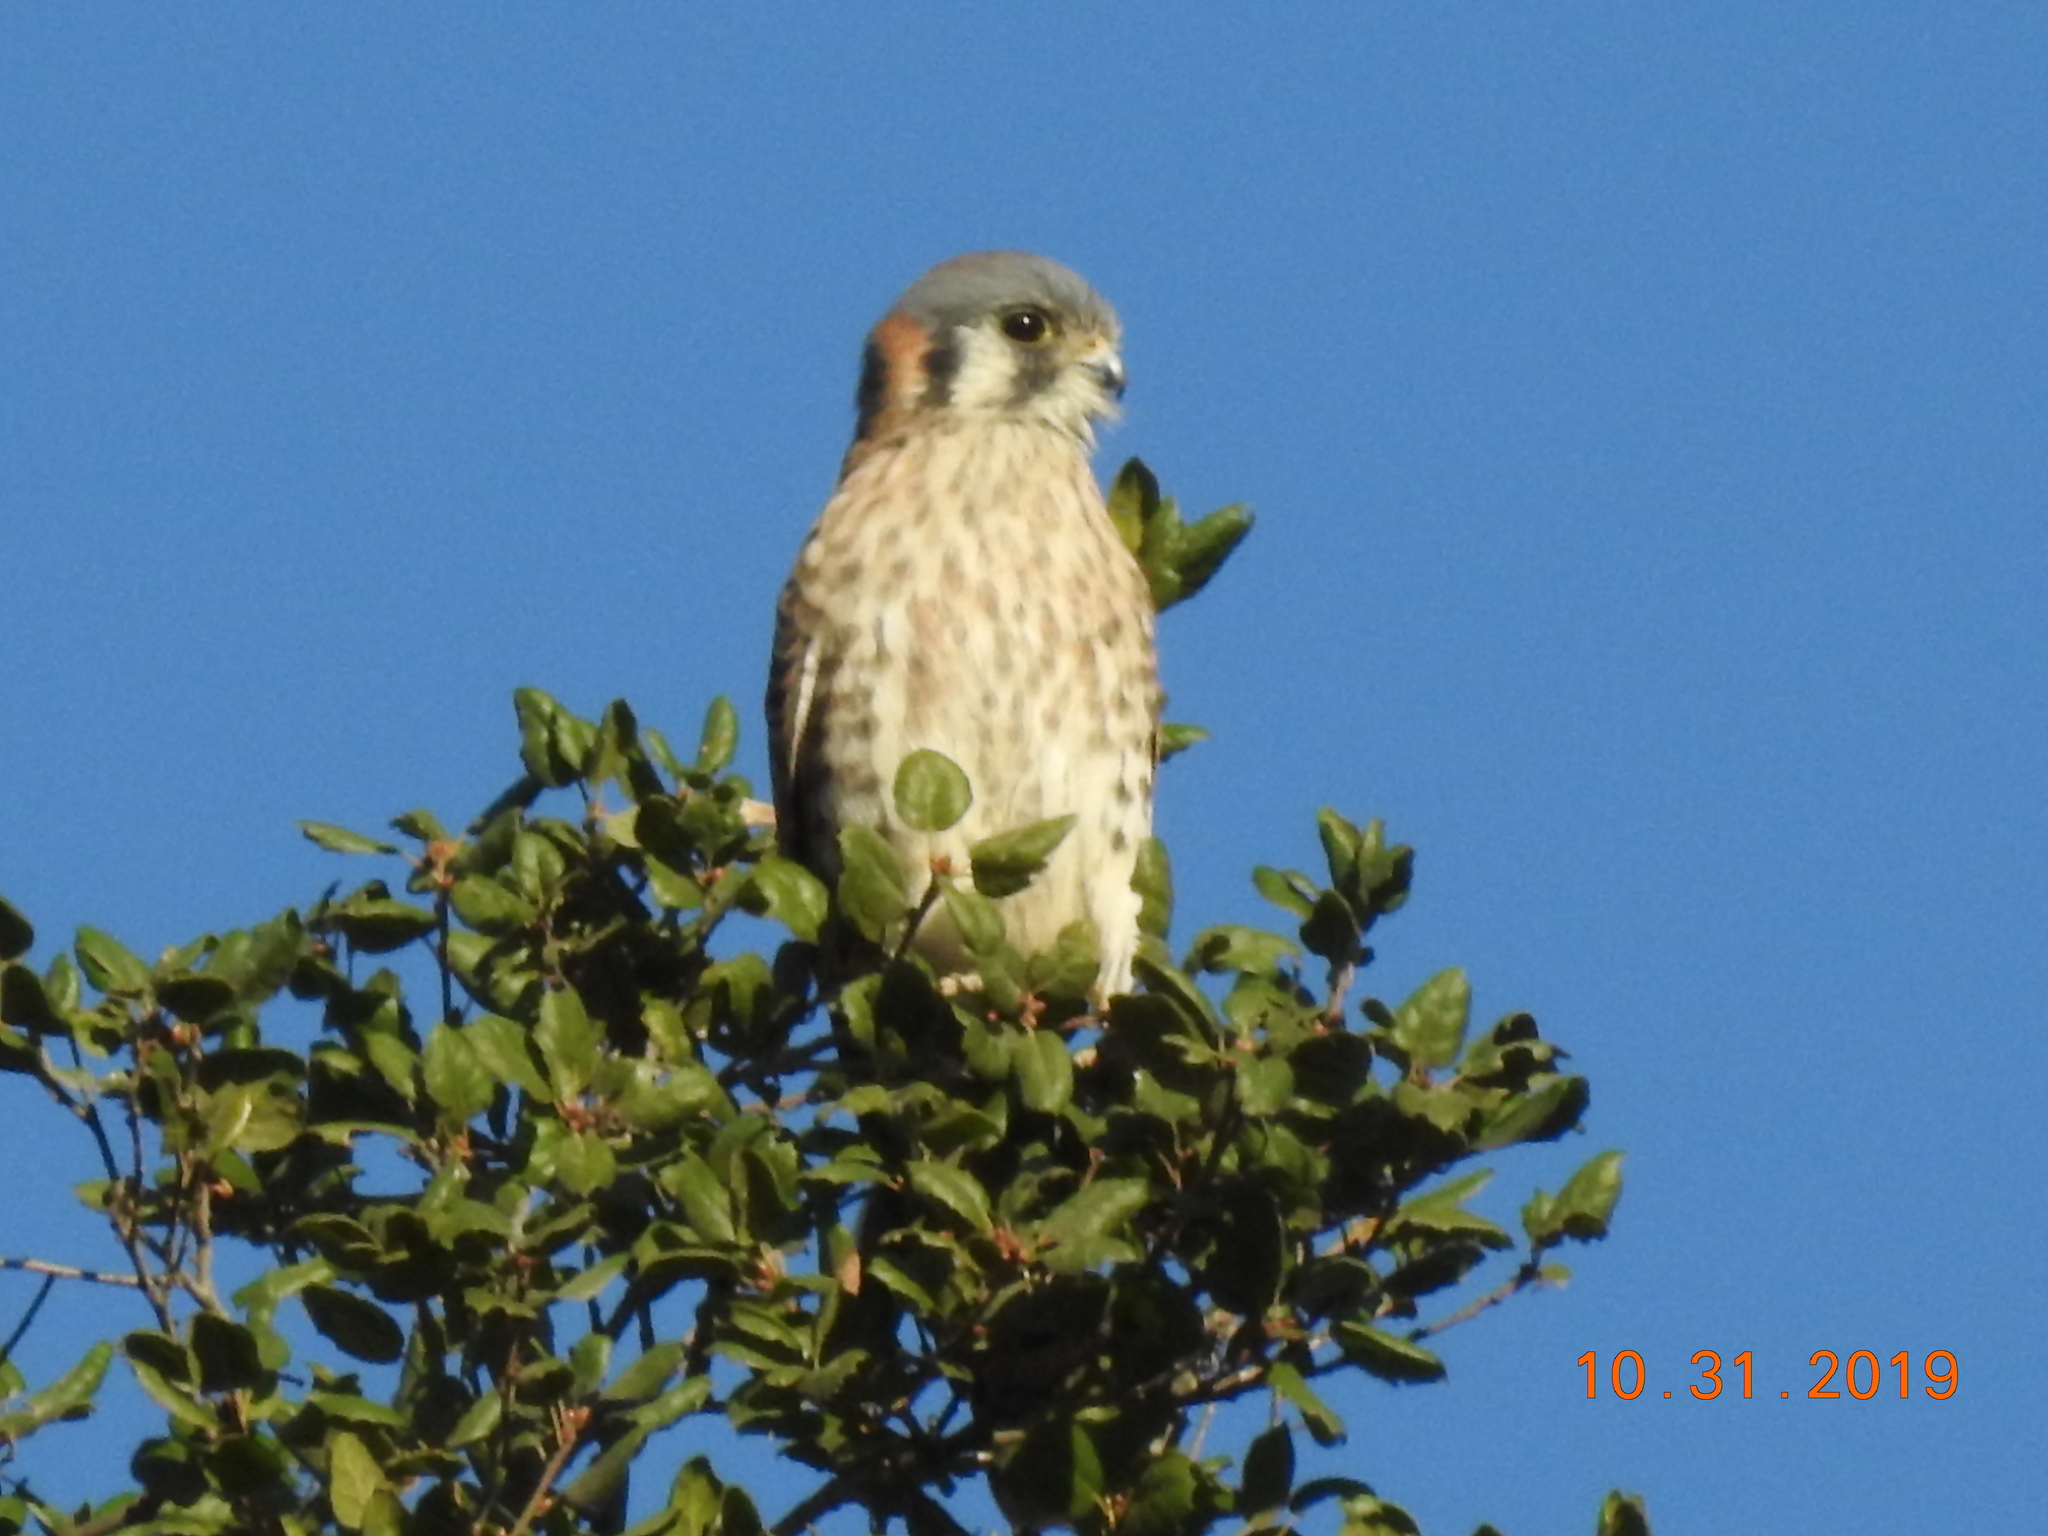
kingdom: Animalia
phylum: Chordata
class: Aves
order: Falconiformes
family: Falconidae
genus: Falco
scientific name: Falco sparverius
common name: American kestrel
